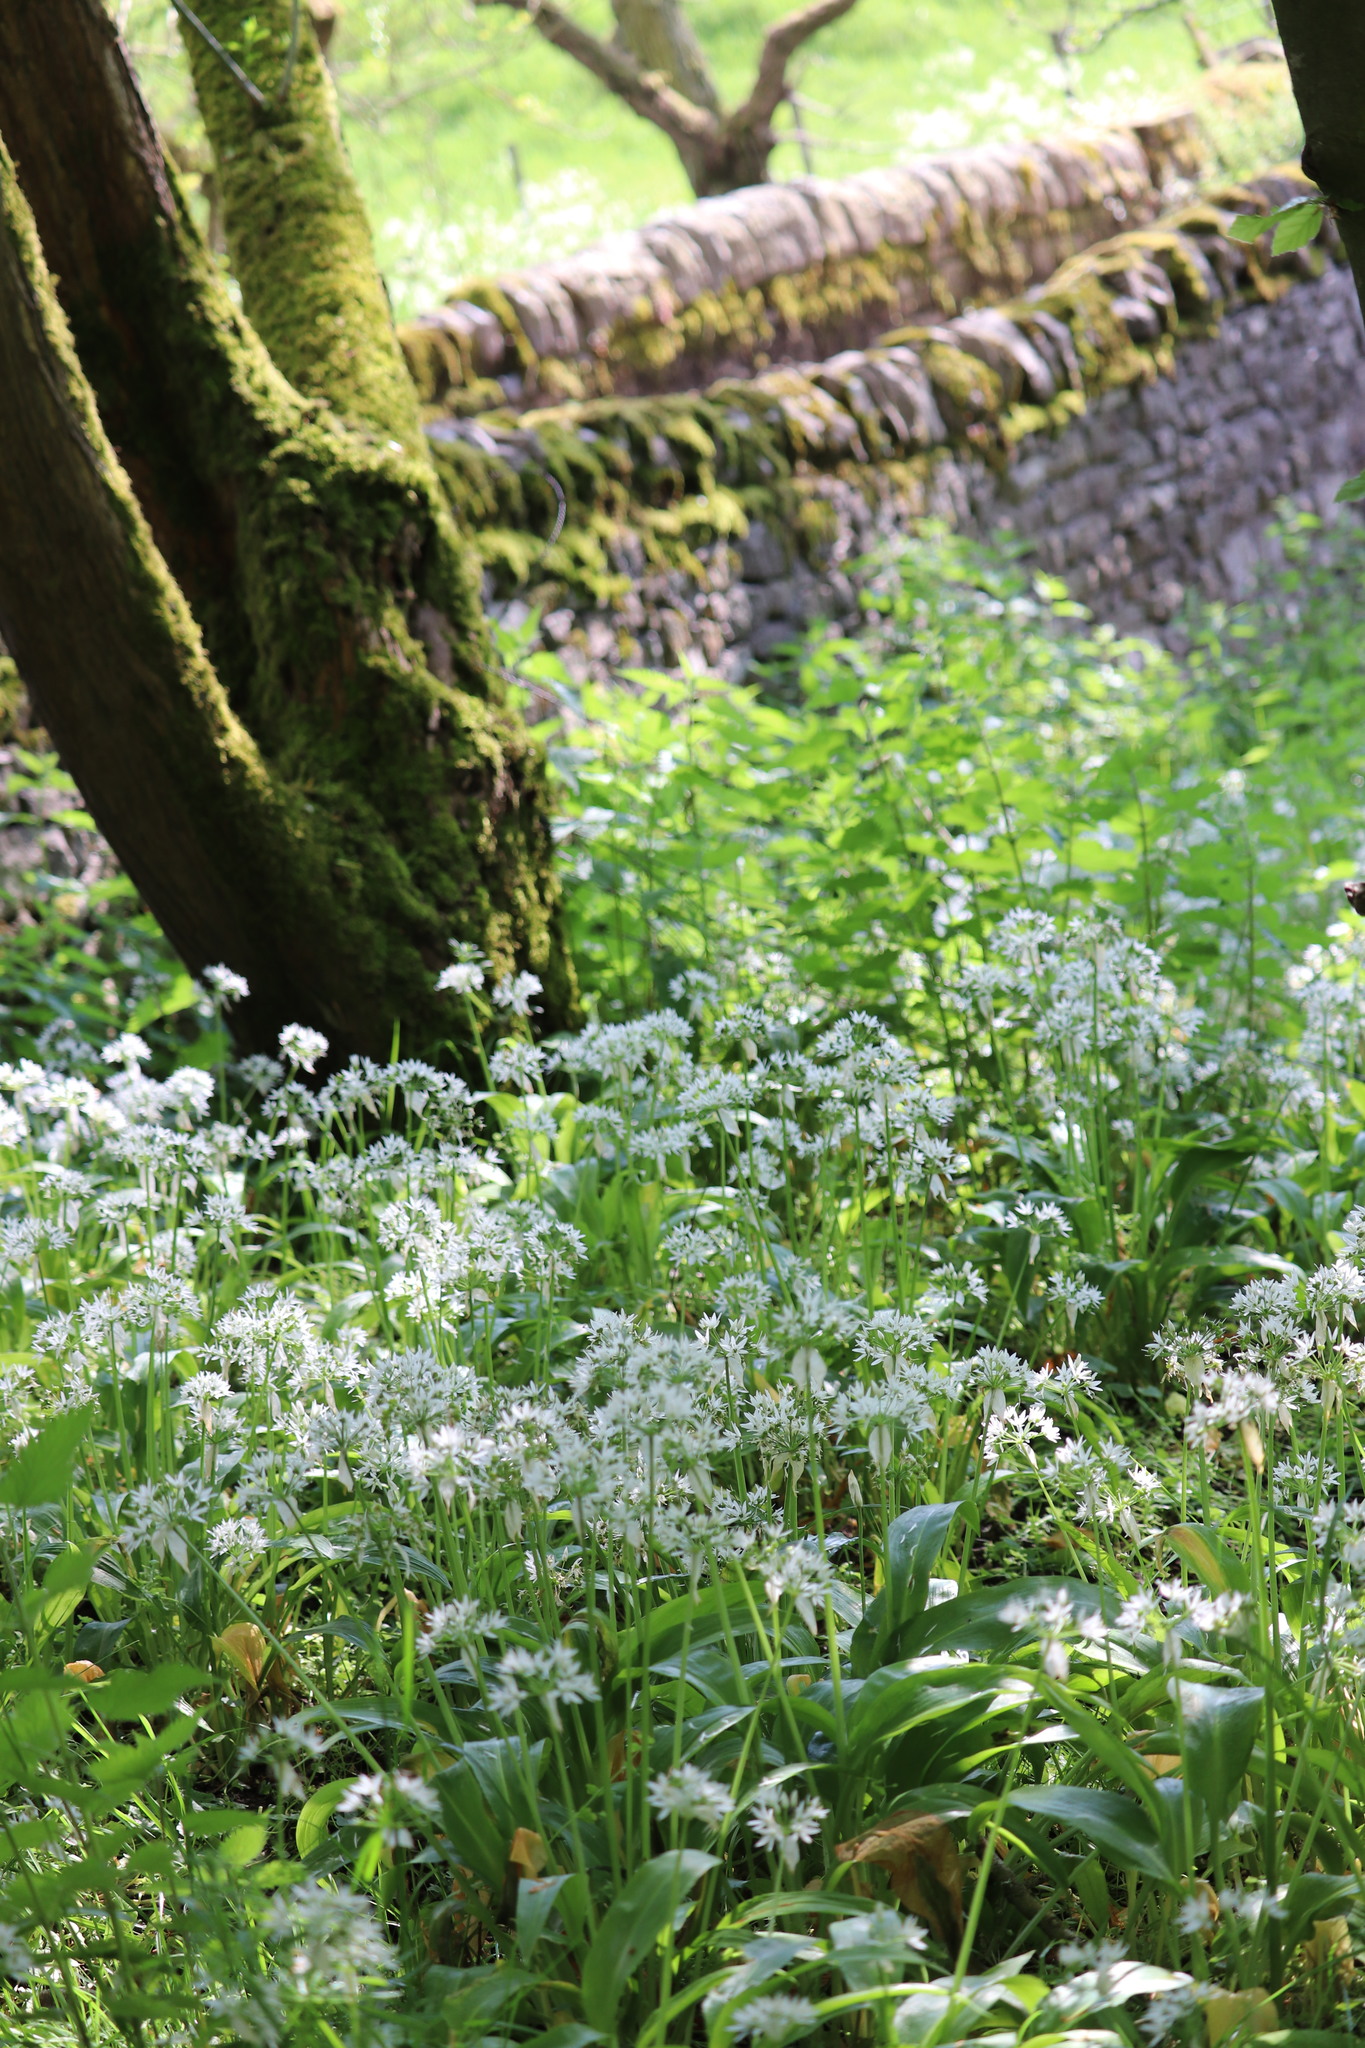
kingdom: Plantae
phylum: Tracheophyta
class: Liliopsida
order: Asparagales
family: Amaryllidaceae
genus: Allium
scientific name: Allium ursinum
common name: Ramsons
